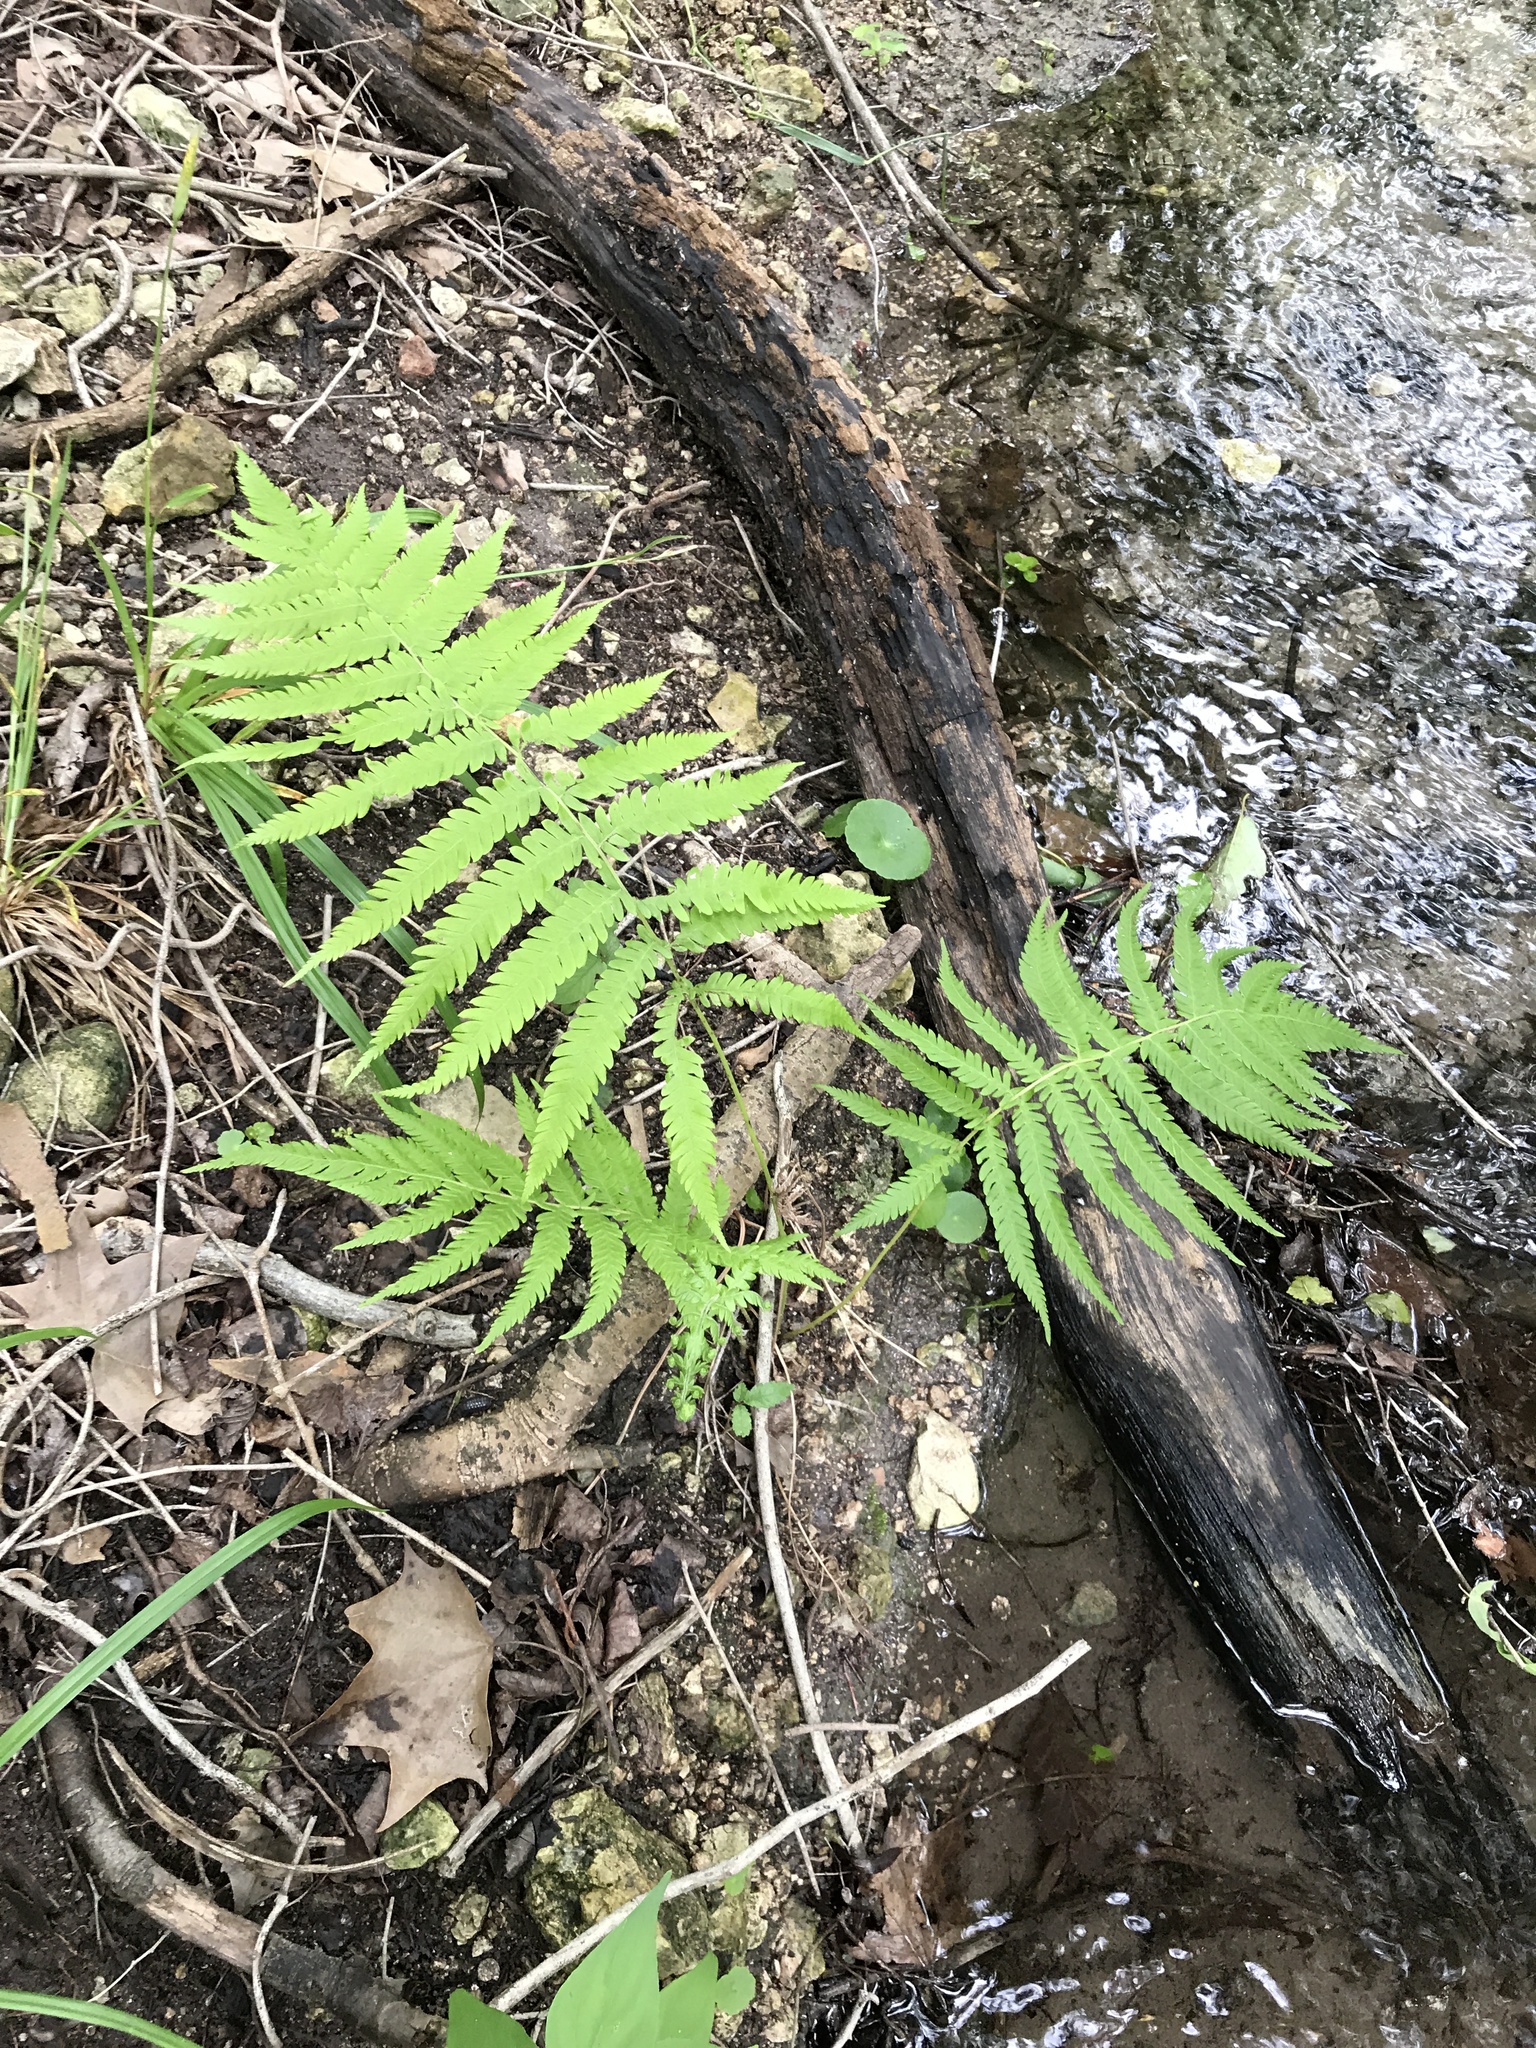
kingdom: Plantae
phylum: Tracheophyta
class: Polypodiopsida
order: Polypodiales
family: Thelypteridaceae
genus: Pelazoneuron
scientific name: Pelazoneuron ovatum
